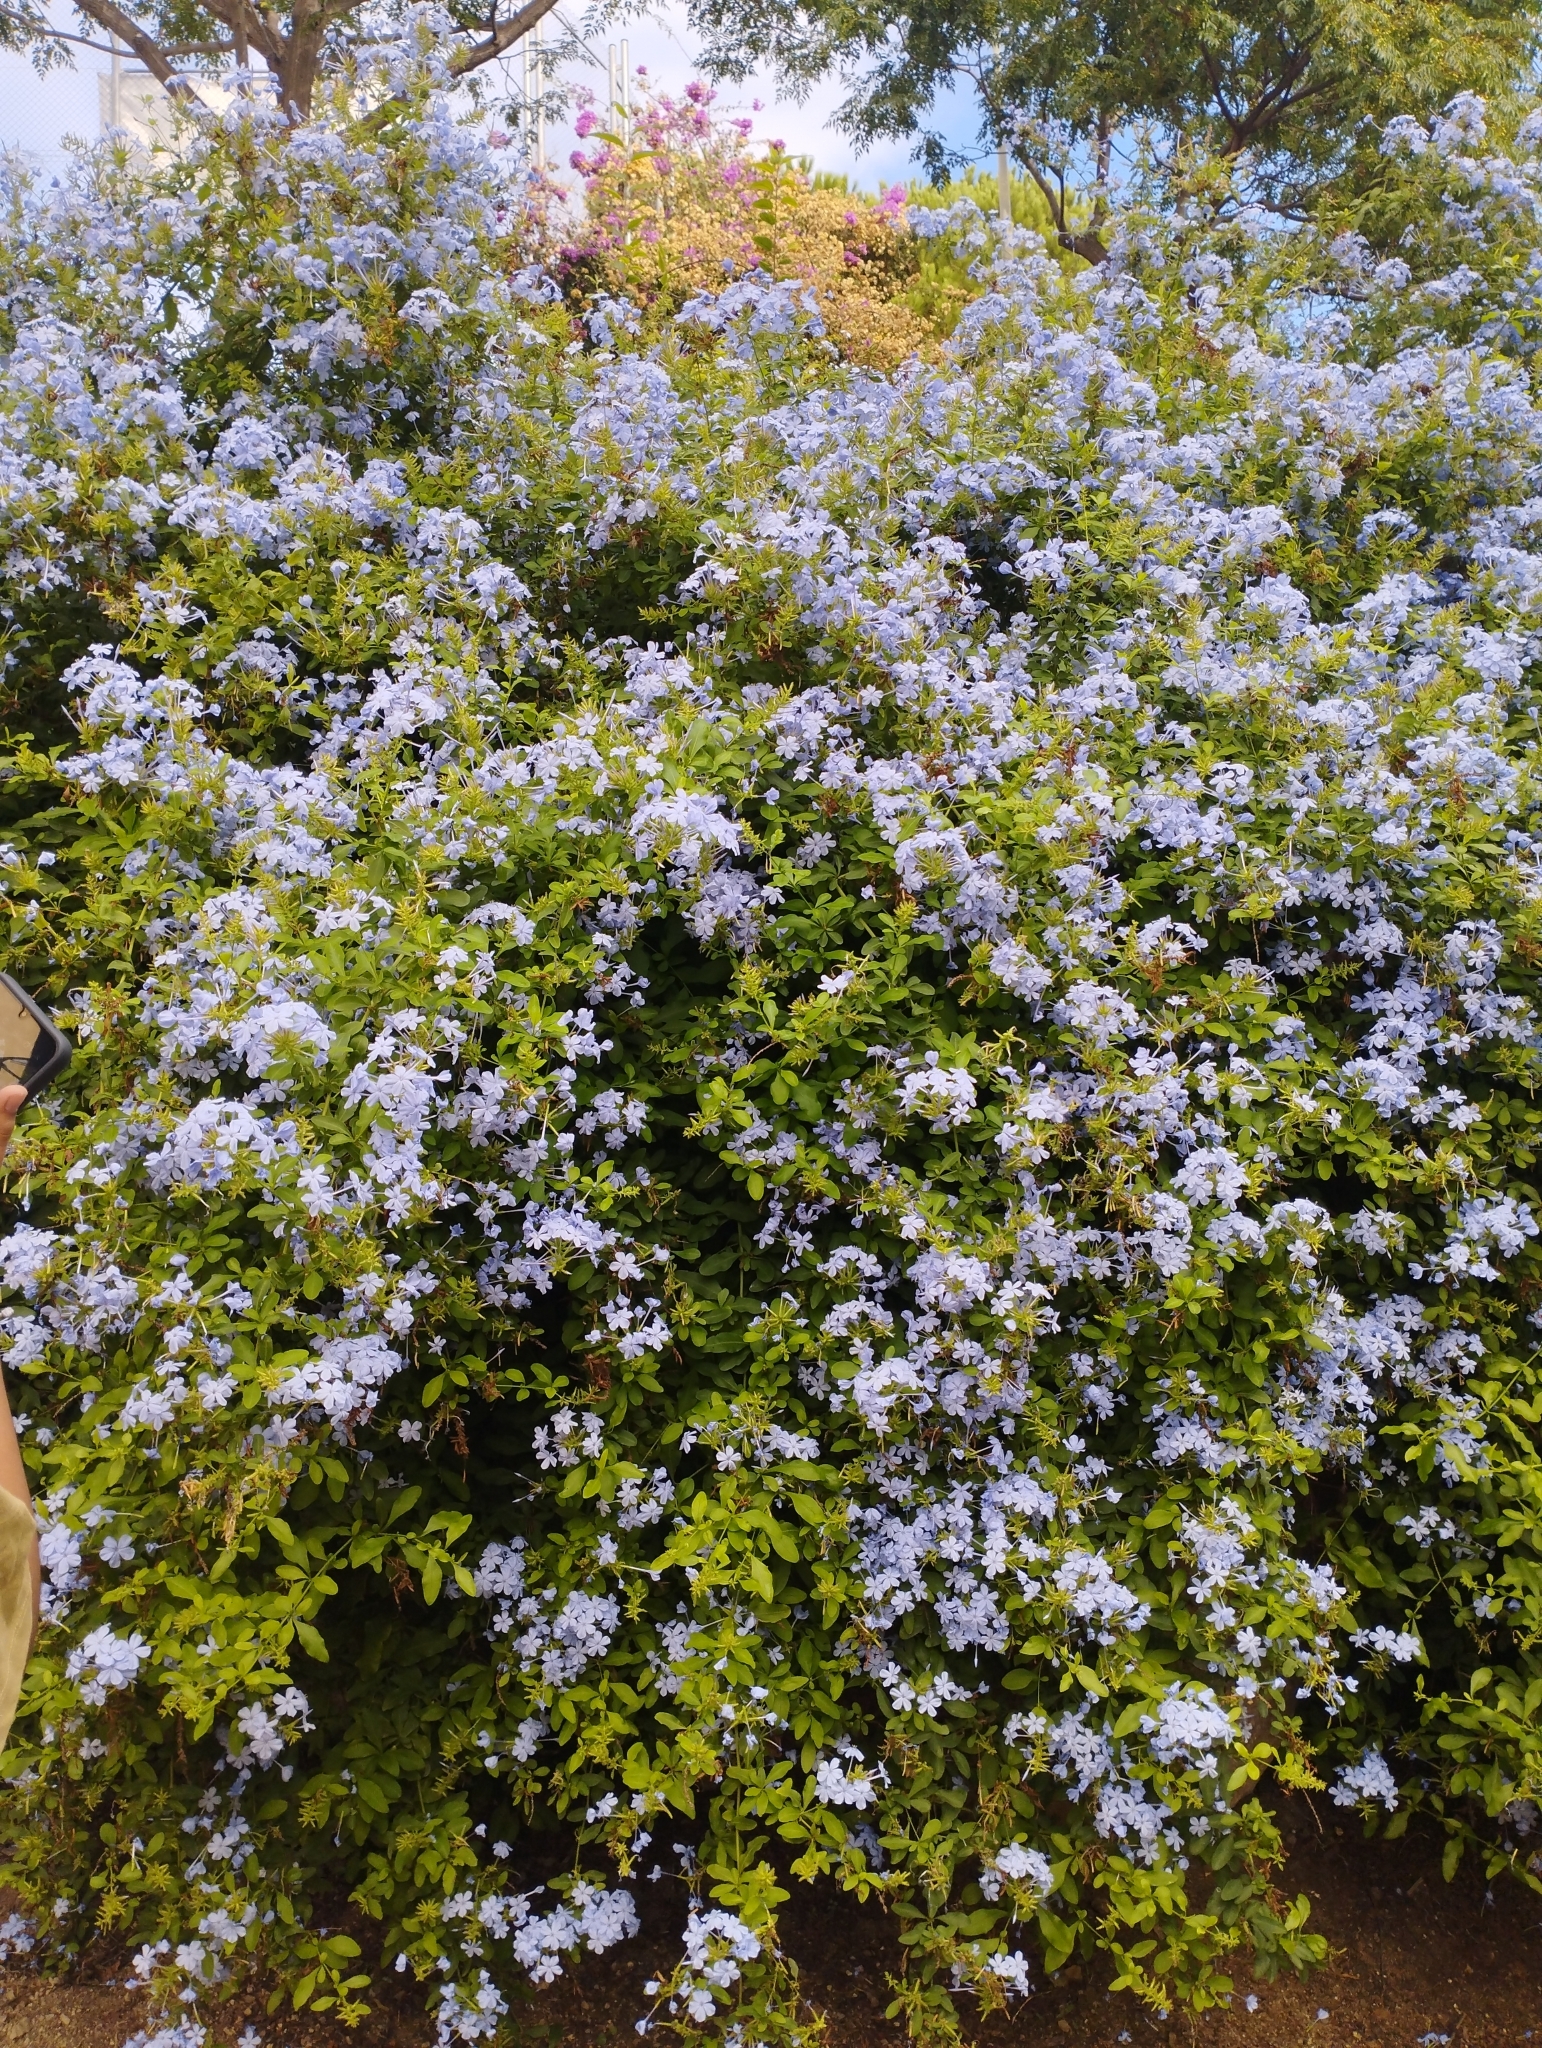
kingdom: Plantae
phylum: Tracheophyta
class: Magnoliopsida
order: Caryophyllales
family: Plumbaginaceae
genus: Plumbago
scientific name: Plumbago auriculata
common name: Cape leadwort
